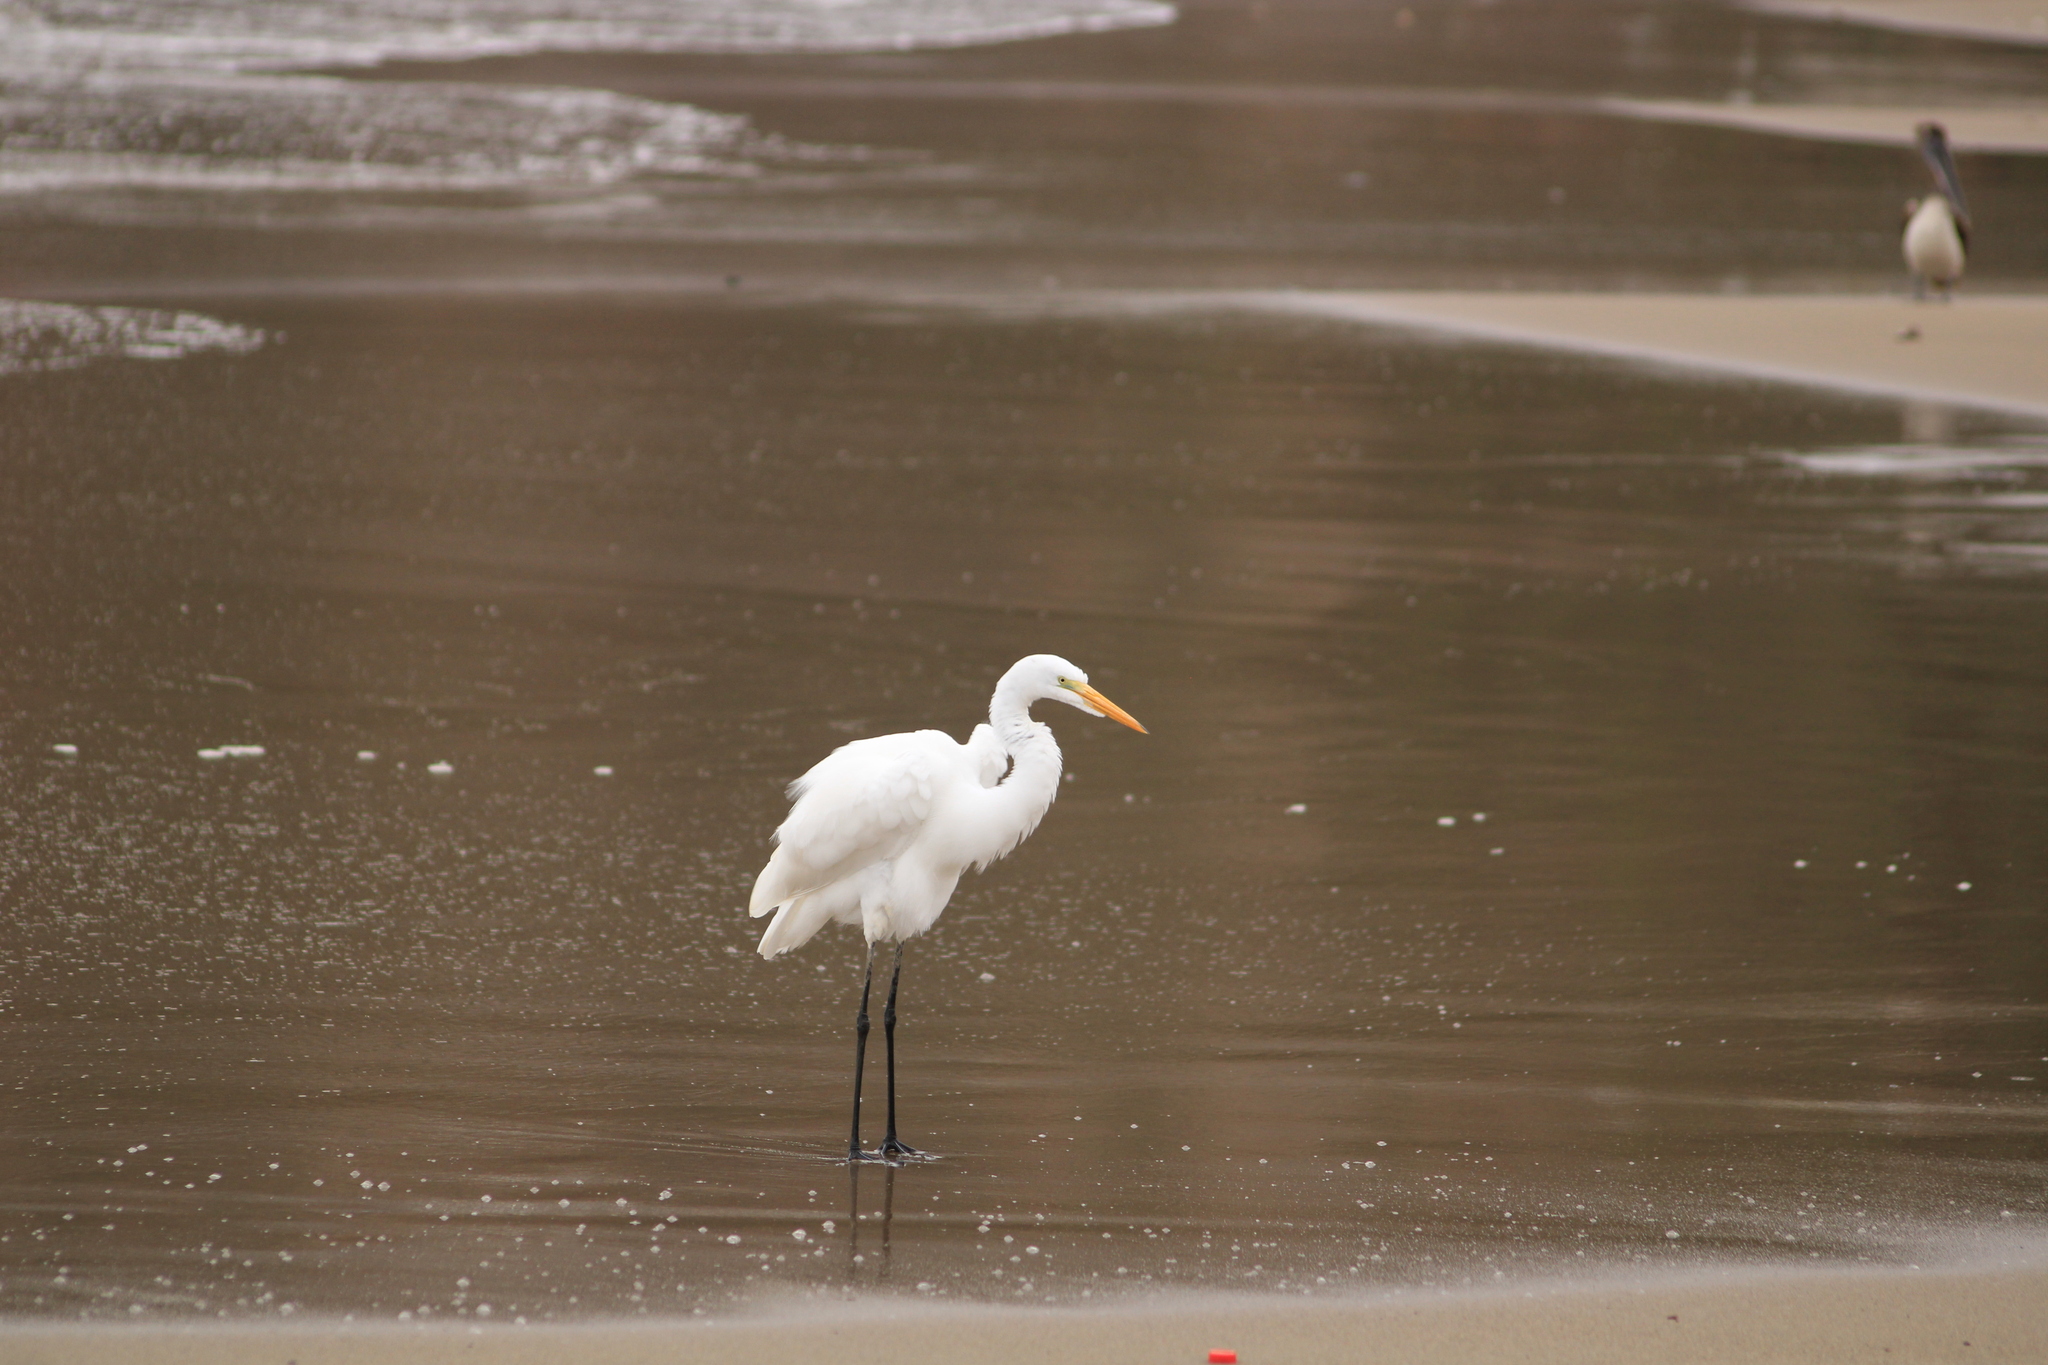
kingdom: Animalia
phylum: Chordata
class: Aves
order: Pelecaniformes
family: Ardeidae
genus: Ardea
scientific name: Ardea alba
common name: Great egret
